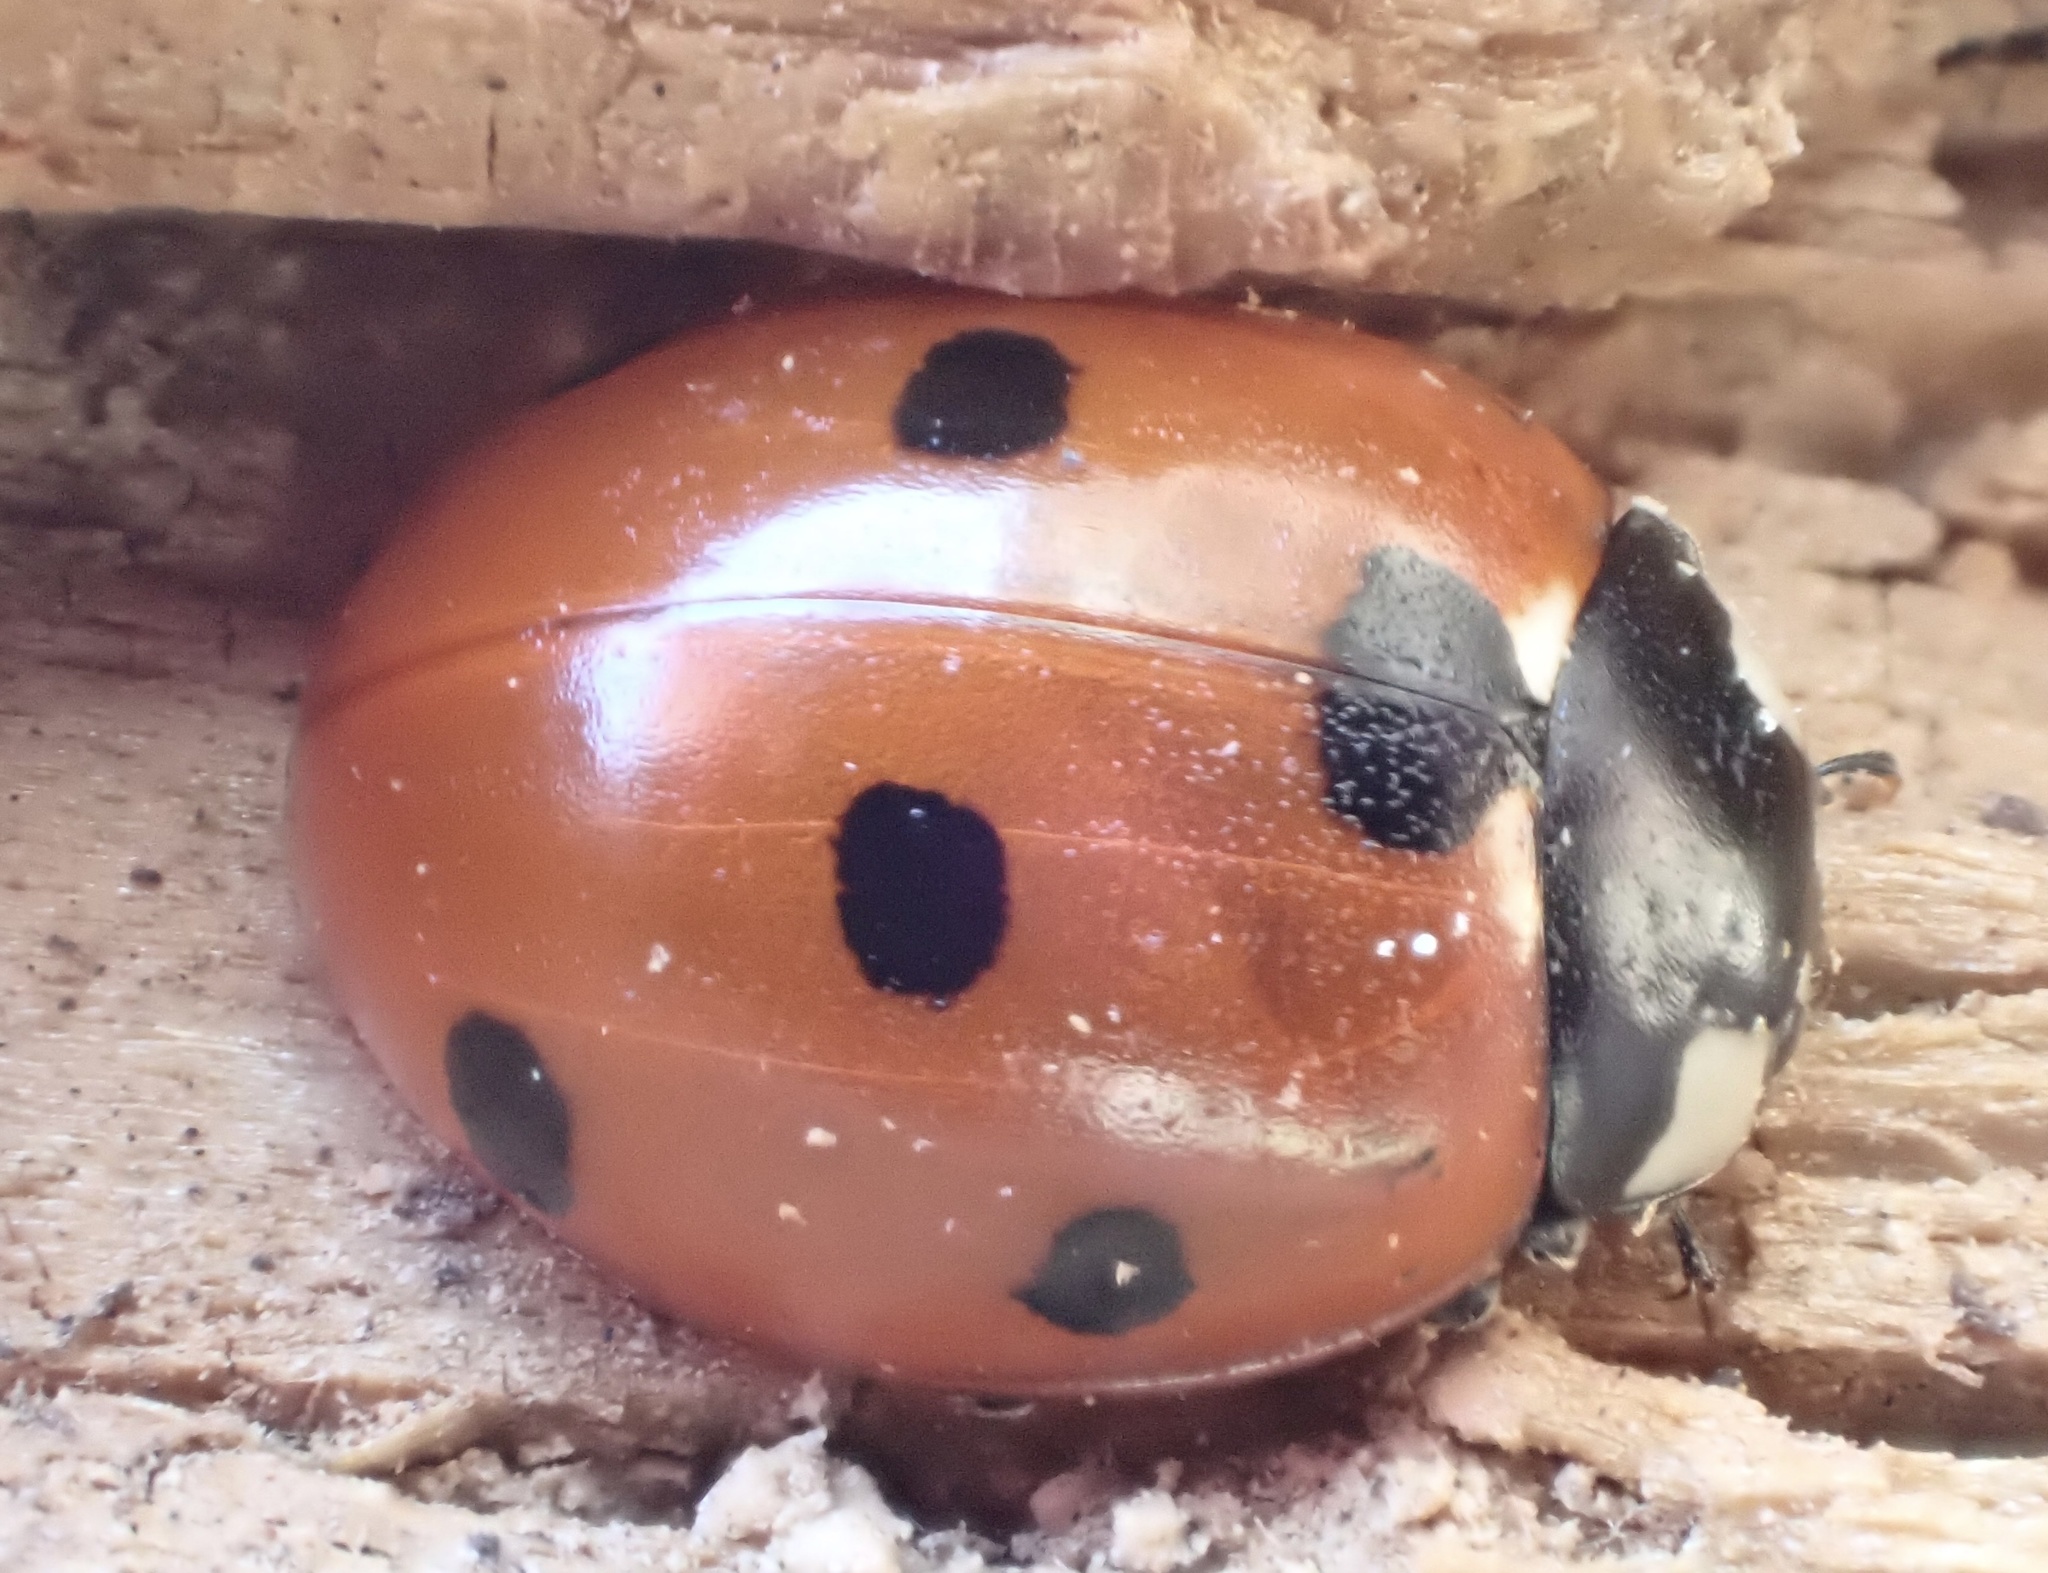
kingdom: Animalia
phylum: Arthropoda
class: Insecta
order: Coleoptera
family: Coccinellidae
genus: Coccinella
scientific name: Coccinella septempunctata
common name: Sevenspotted lady beetle
